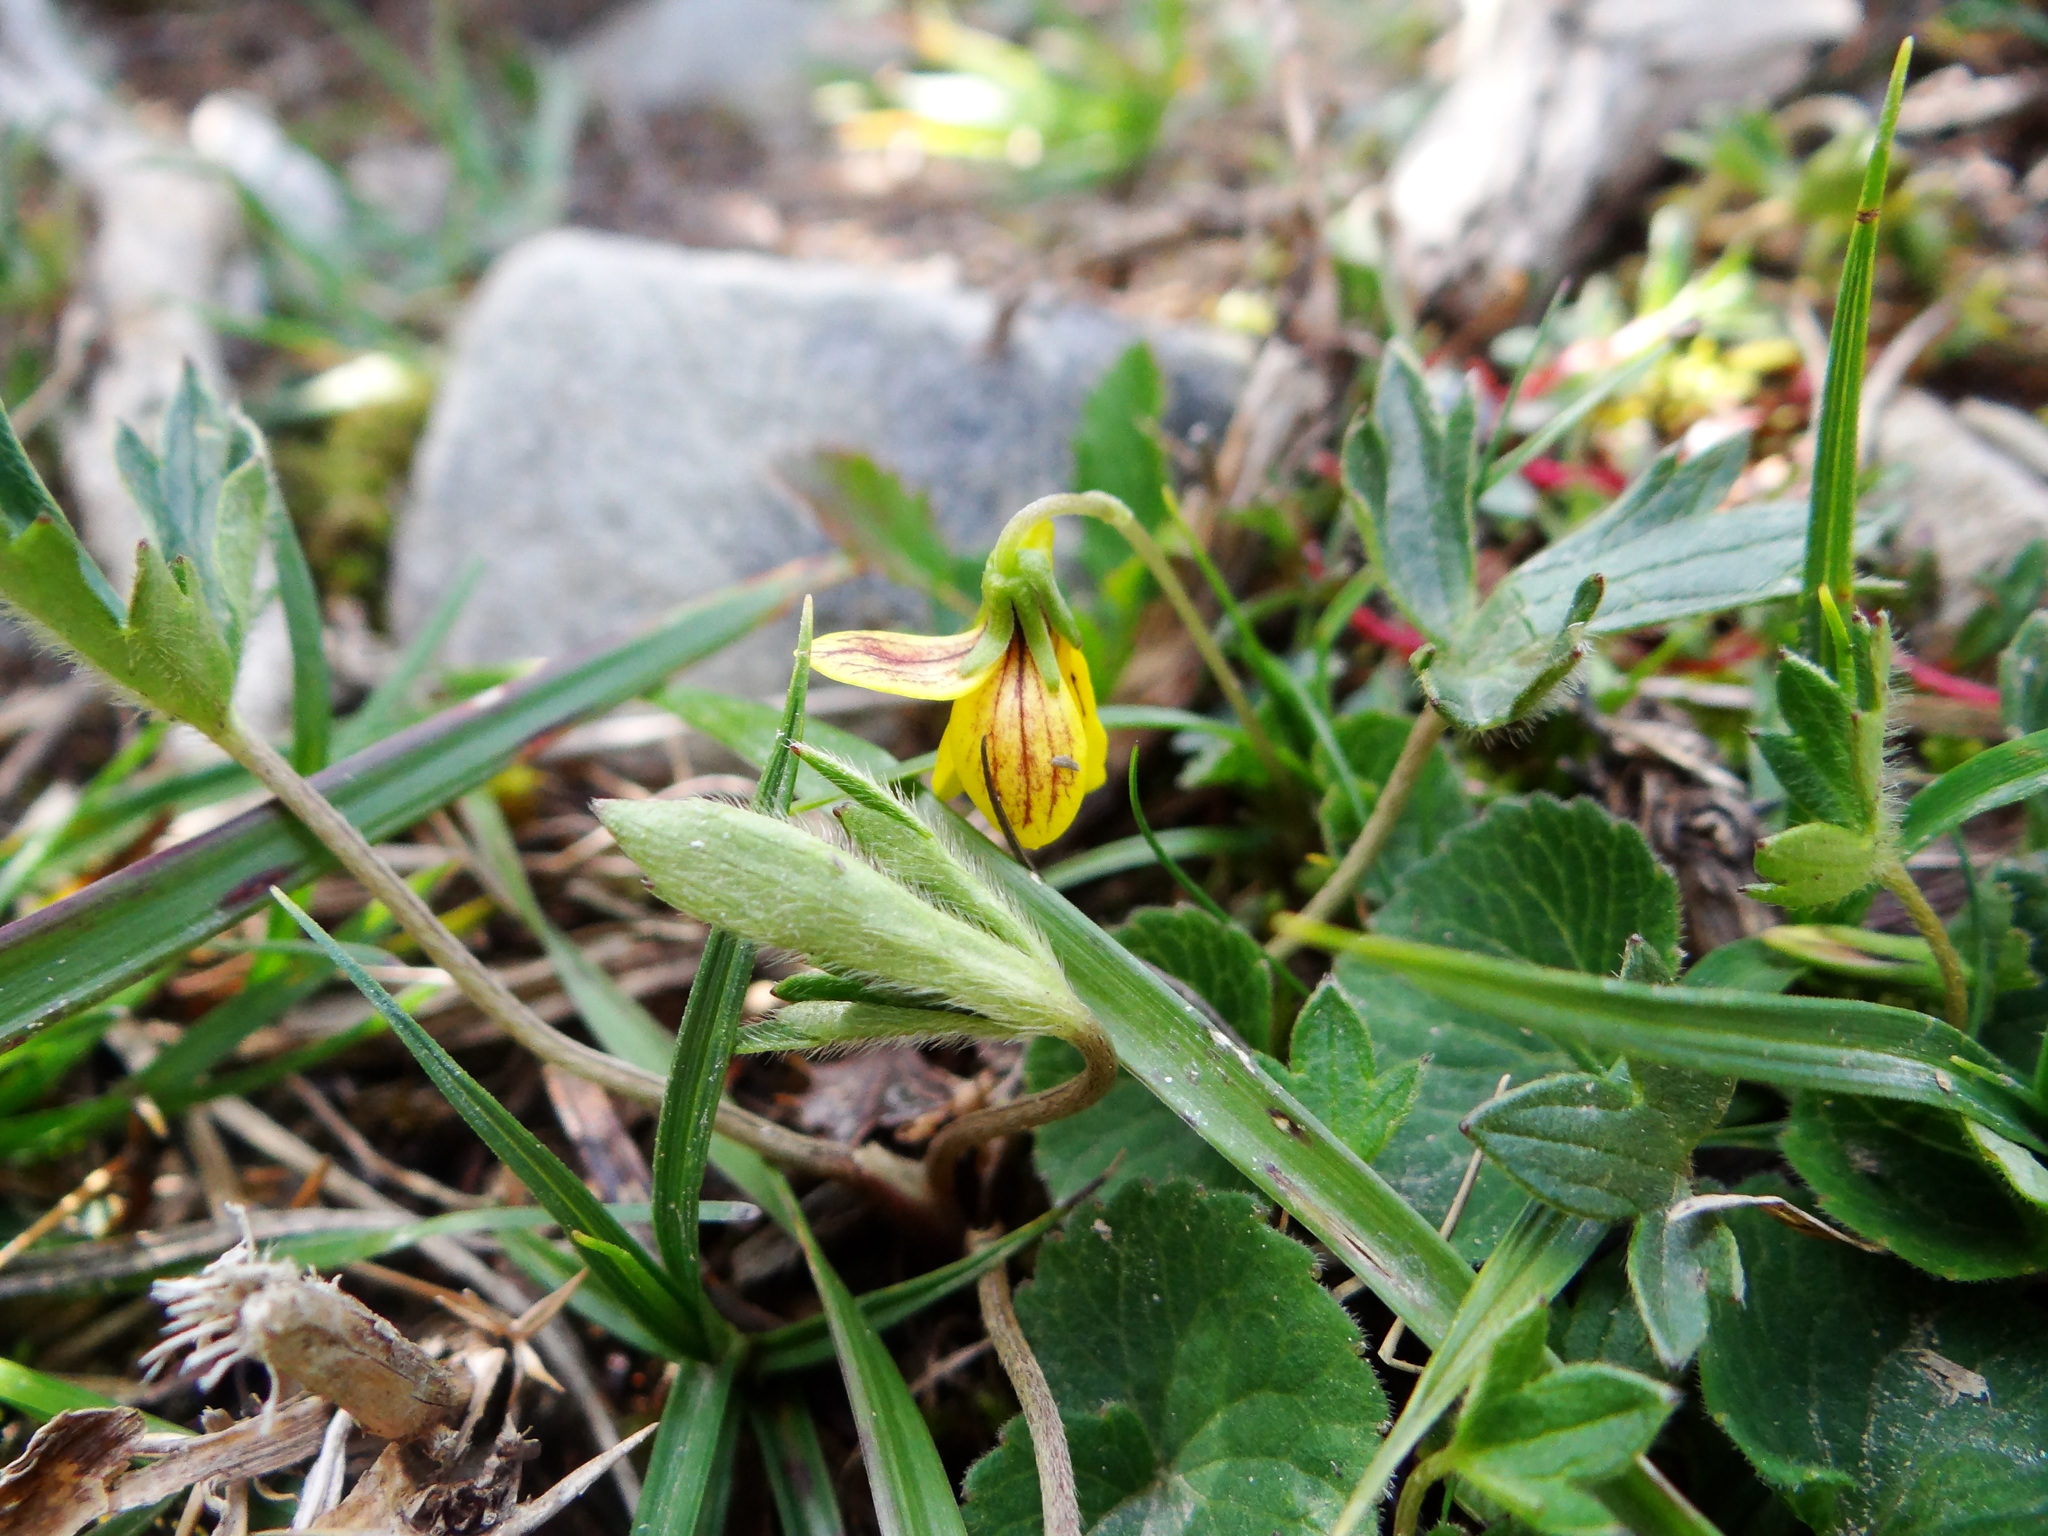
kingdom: Plantae
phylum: Tracheophyta
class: Magnoliopsida
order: Malpighiales
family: Violaceae
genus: Viola
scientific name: Viola biflora
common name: Alpine yellow violet
